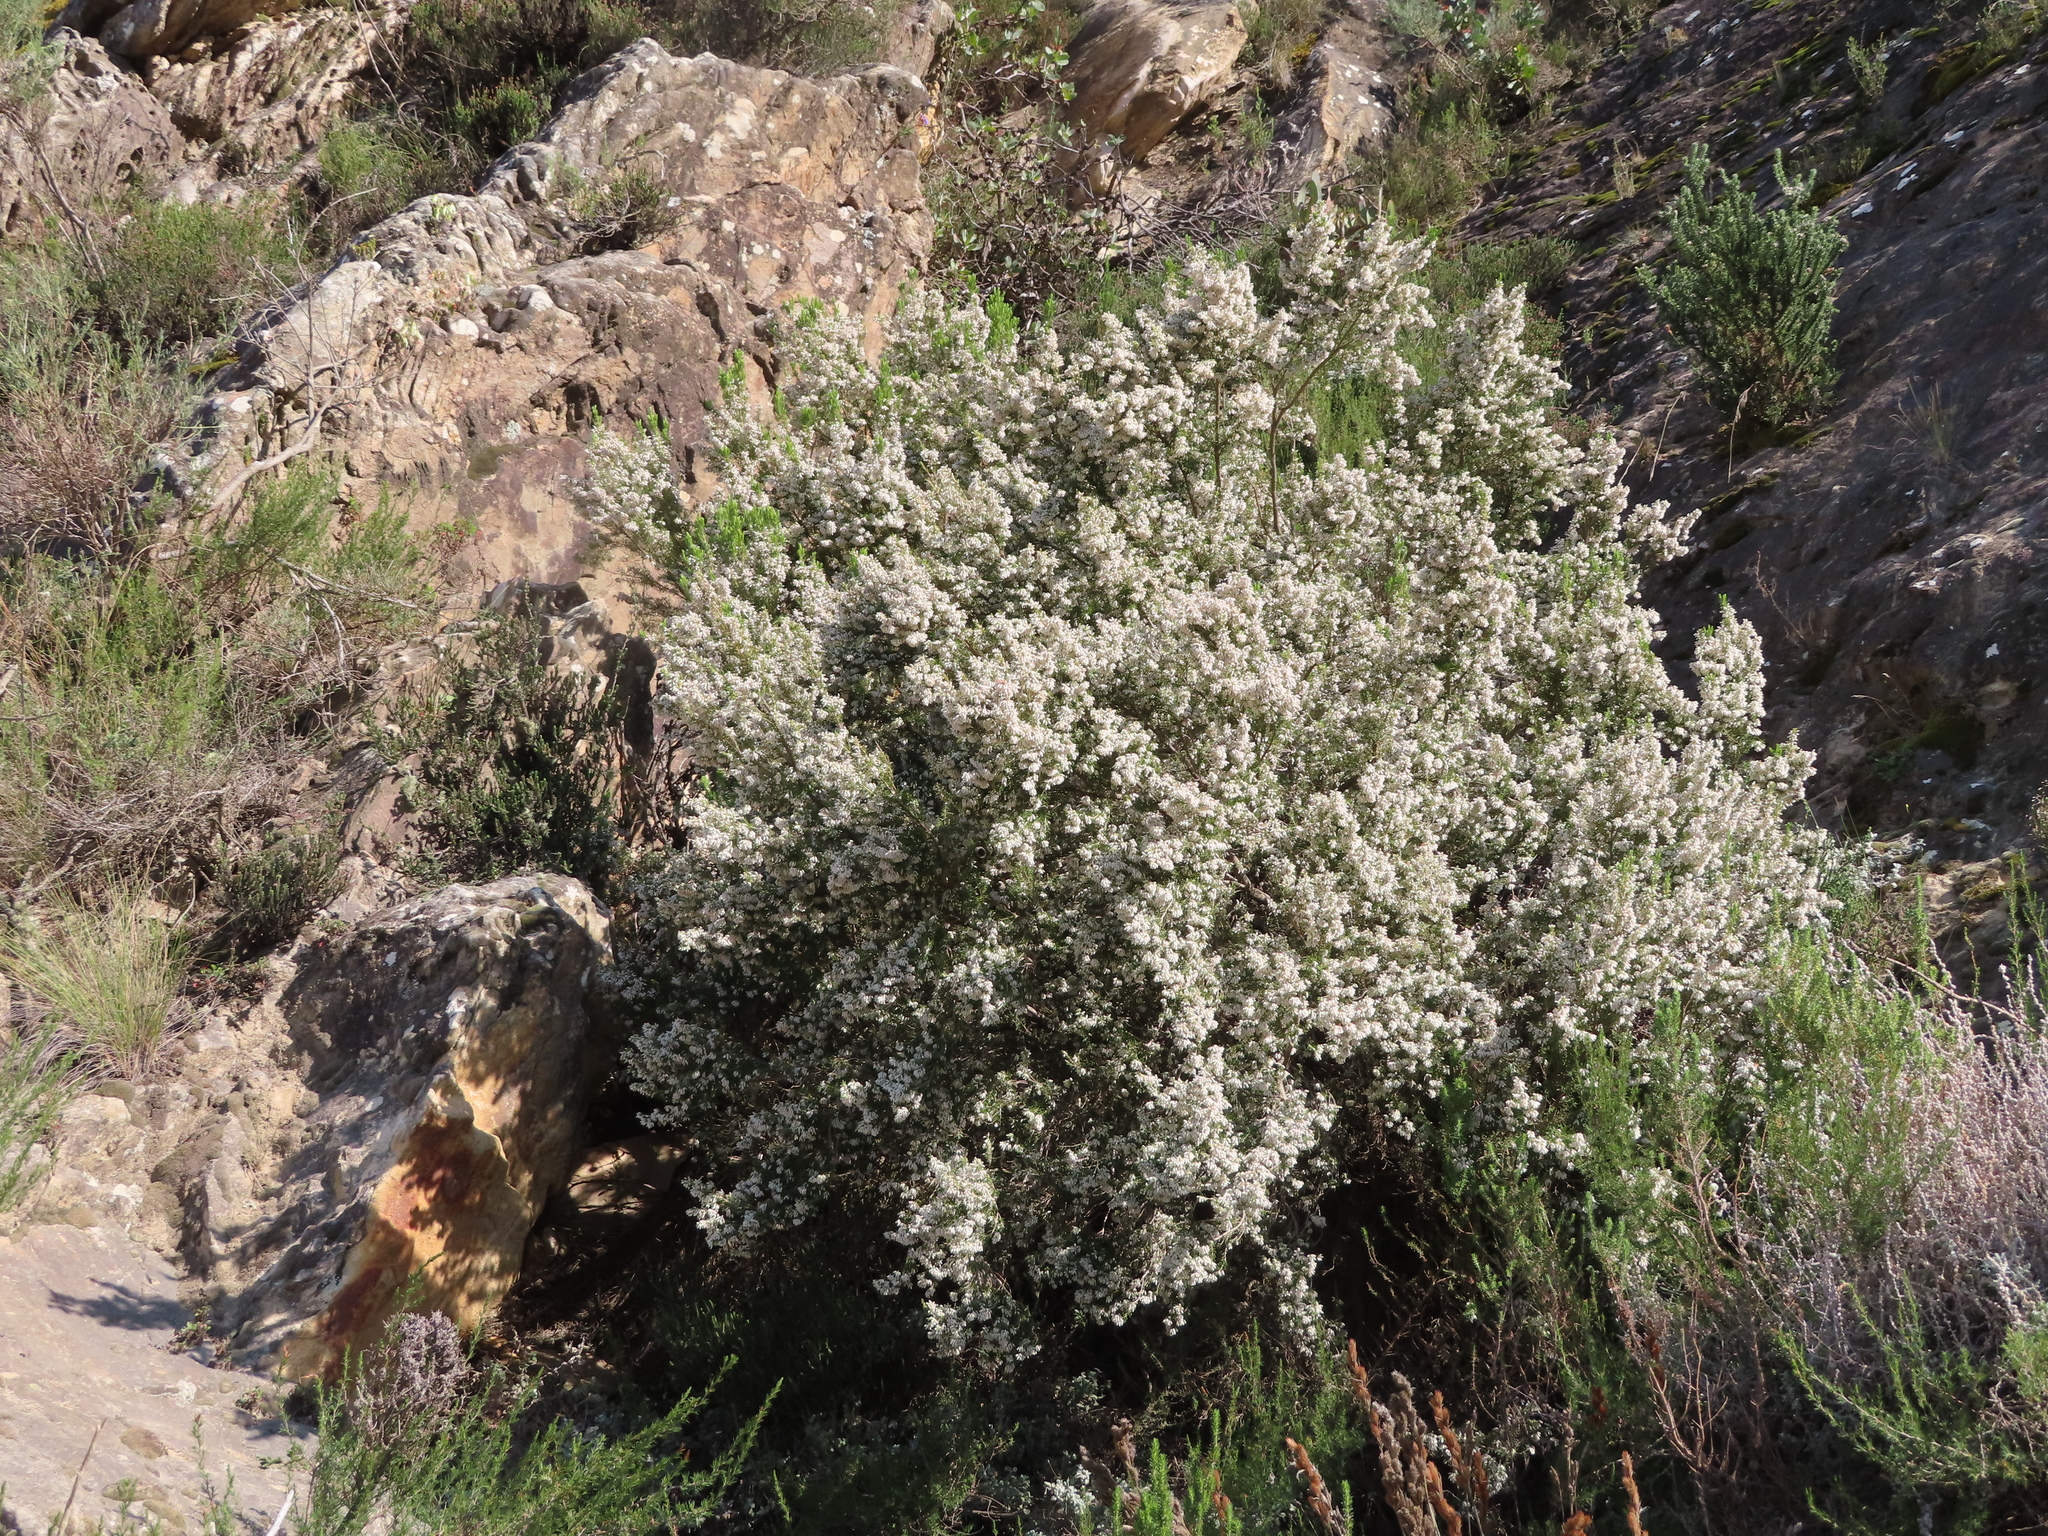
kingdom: Plantae
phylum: Tracheophyta
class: Magnoliopsida
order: Ericales
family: Ericaceae
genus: Erica
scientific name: Erica caffra
